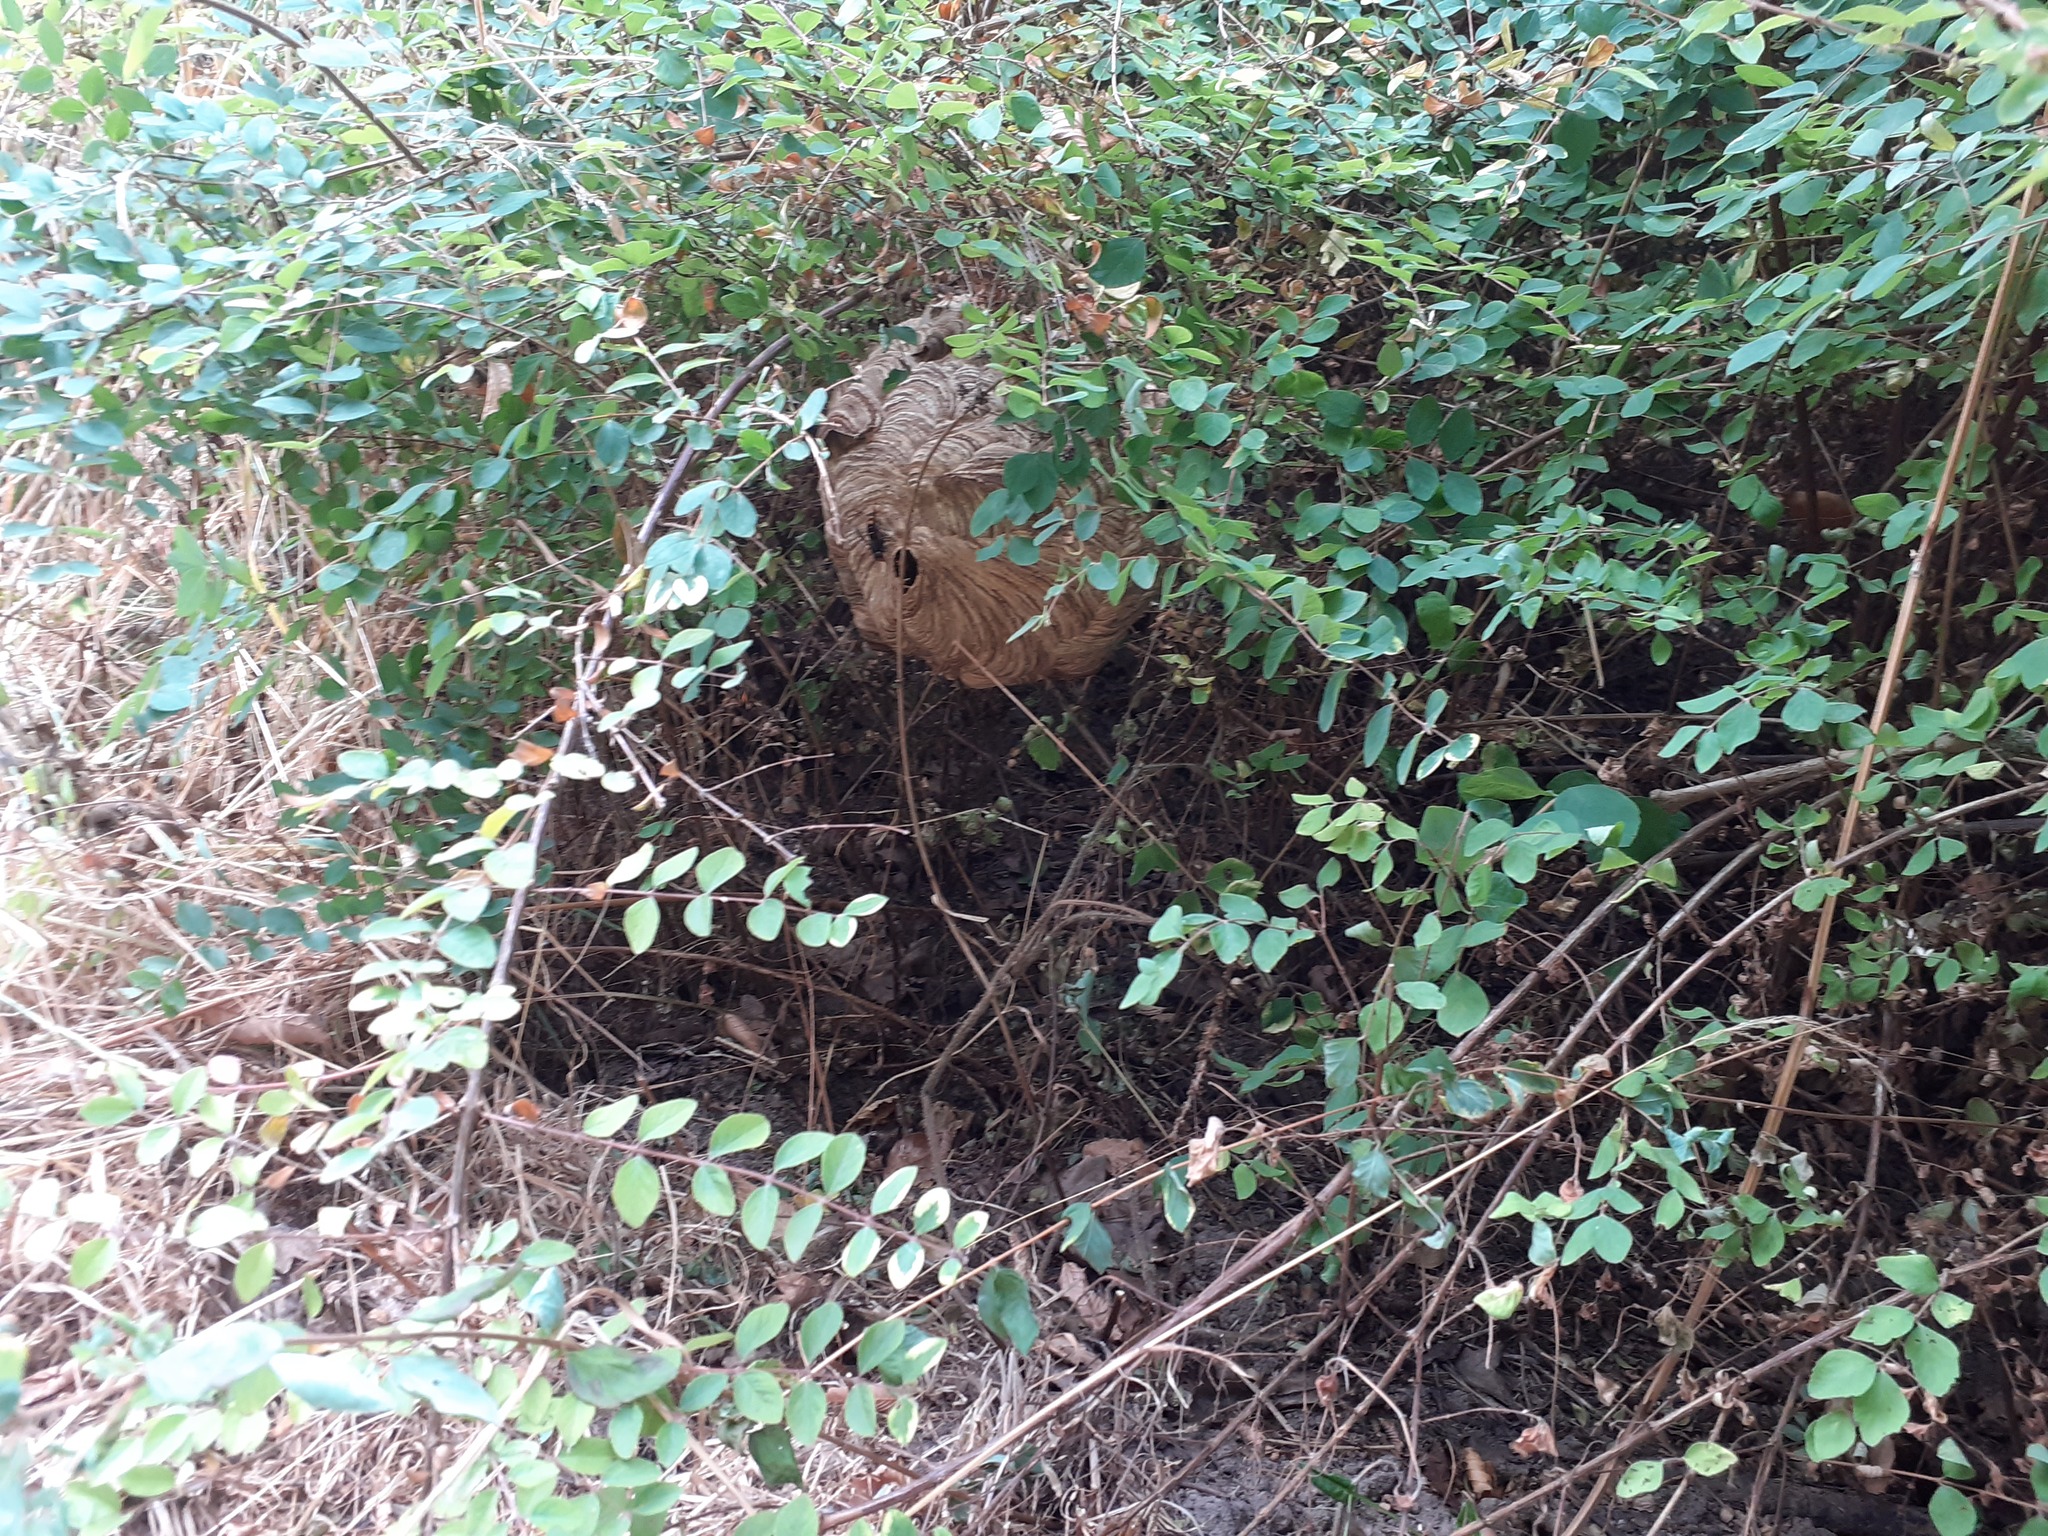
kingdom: Animalia
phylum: Arthropoda
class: Insecta
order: Hymenoptera
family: Vespidae
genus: Vespa
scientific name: Vespa velutina
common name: Asian hornet
